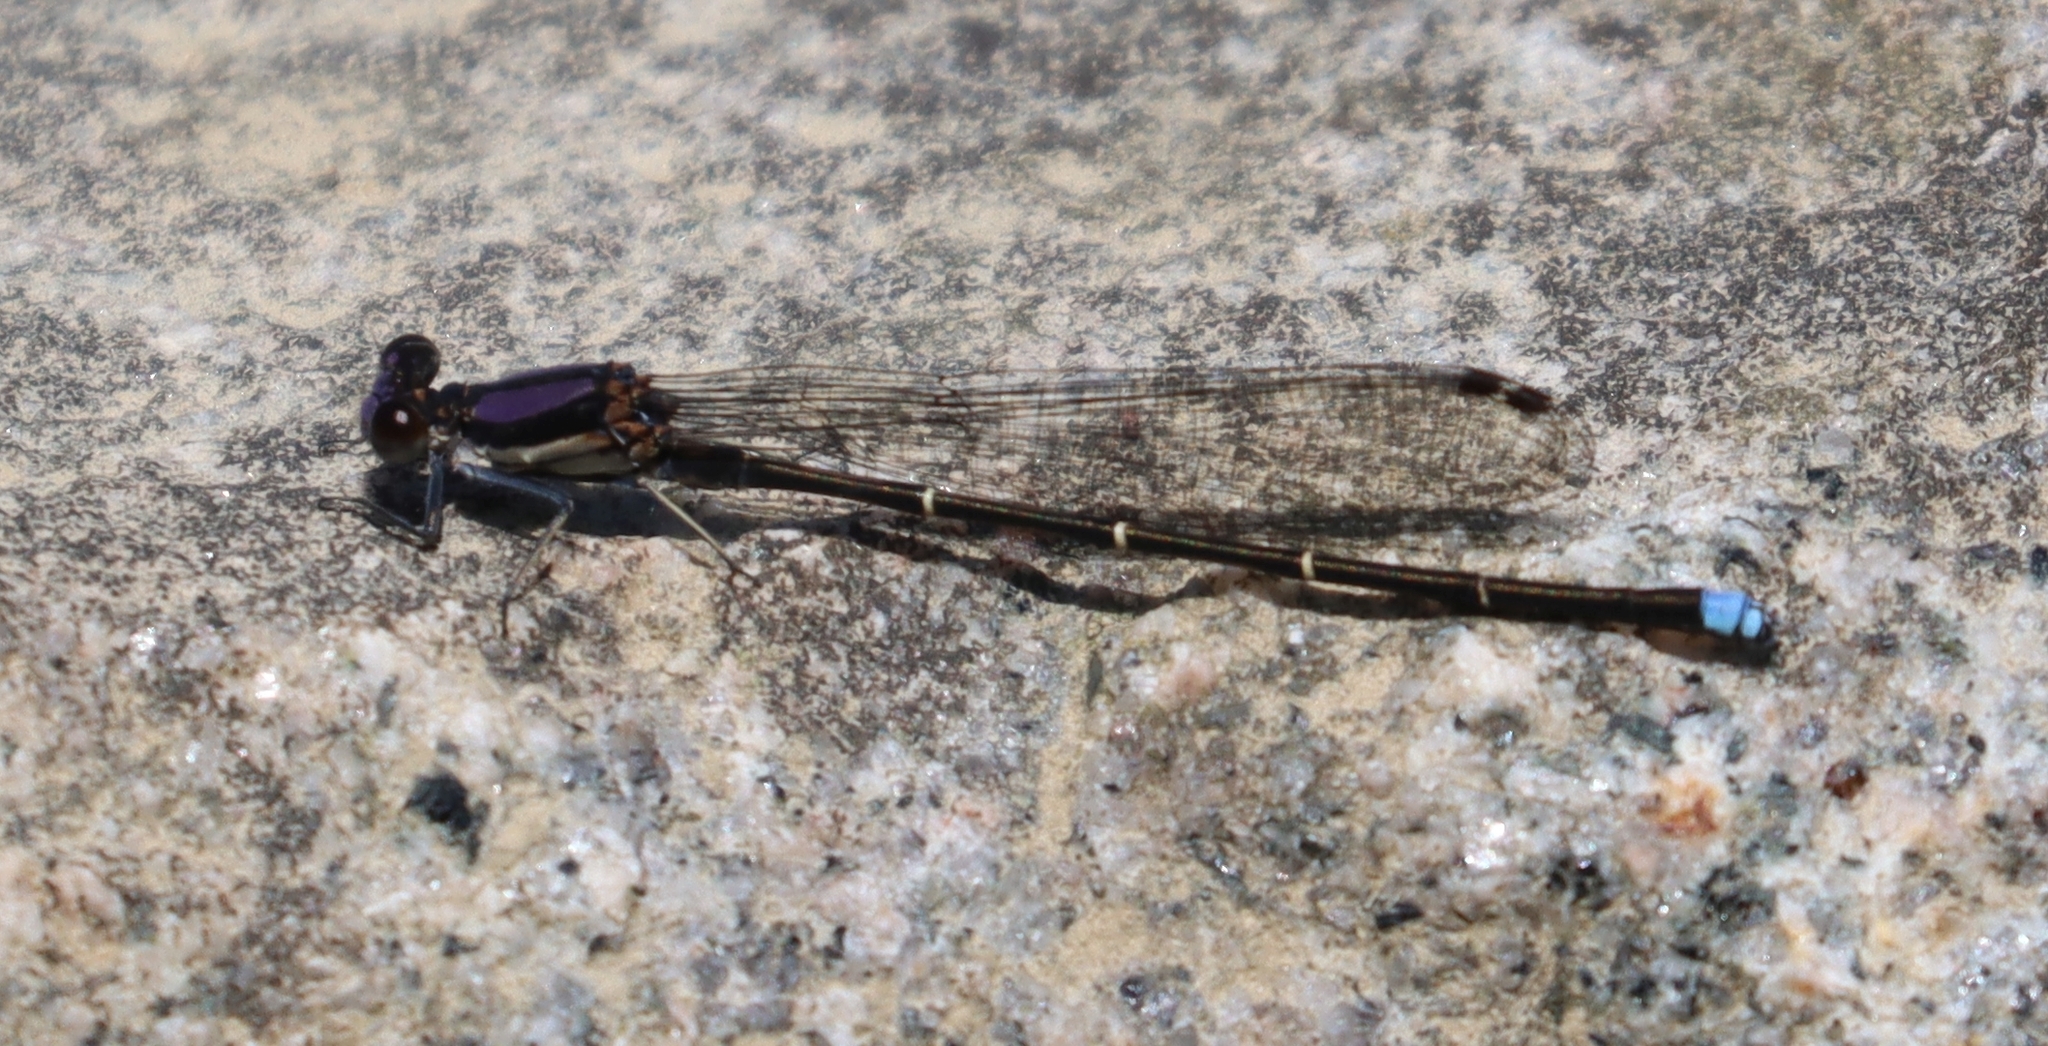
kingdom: Animalia
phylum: Arthropoda
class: Insecta
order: Odonata
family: Coenagrionidae
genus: Argia
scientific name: Argia tibialis
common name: Blue-tipped dancer
